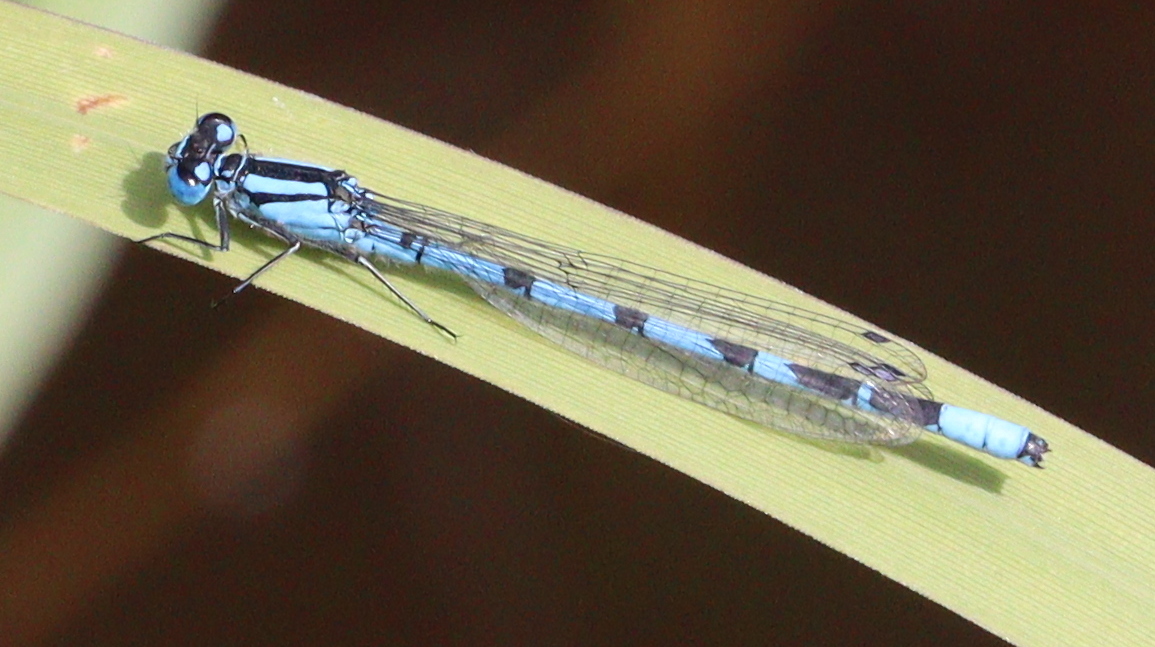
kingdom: Animalia
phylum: Arthropoda
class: Insecta
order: Odonata
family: Coenagrionidae
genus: Enallagma
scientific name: Enallagma cyathigerum
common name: Common blue damselfly
